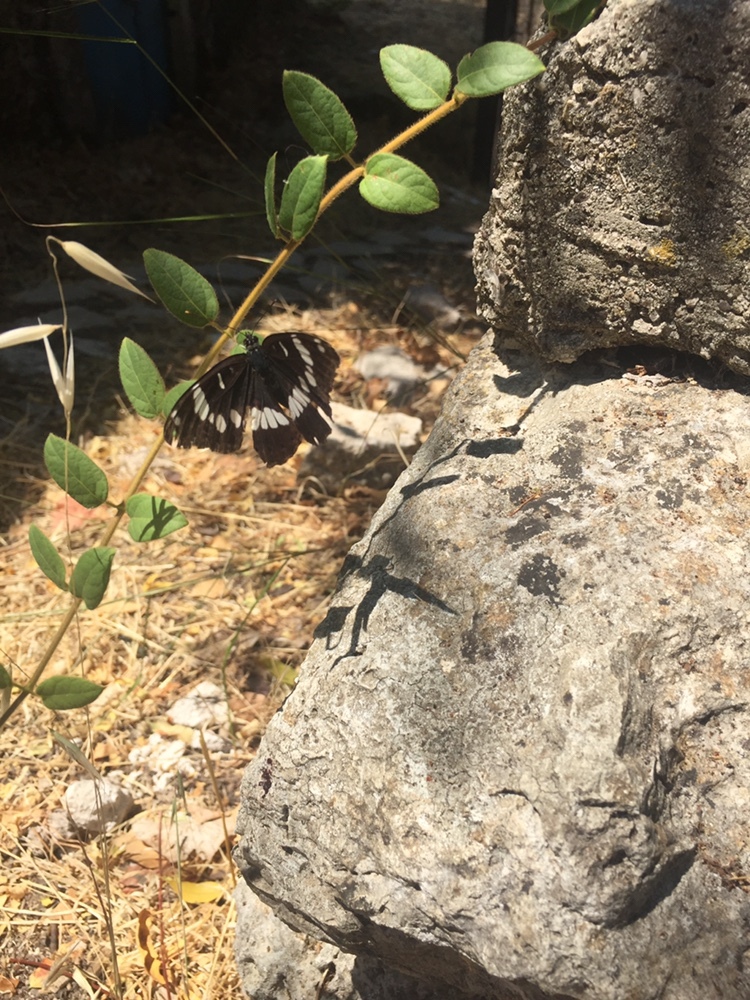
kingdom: Animalia
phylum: Arthropoda
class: Insecta
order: Lepidoptera
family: Nymphalidae
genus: Limenitis
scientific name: Limenitis reducta
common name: Southern white admiral
